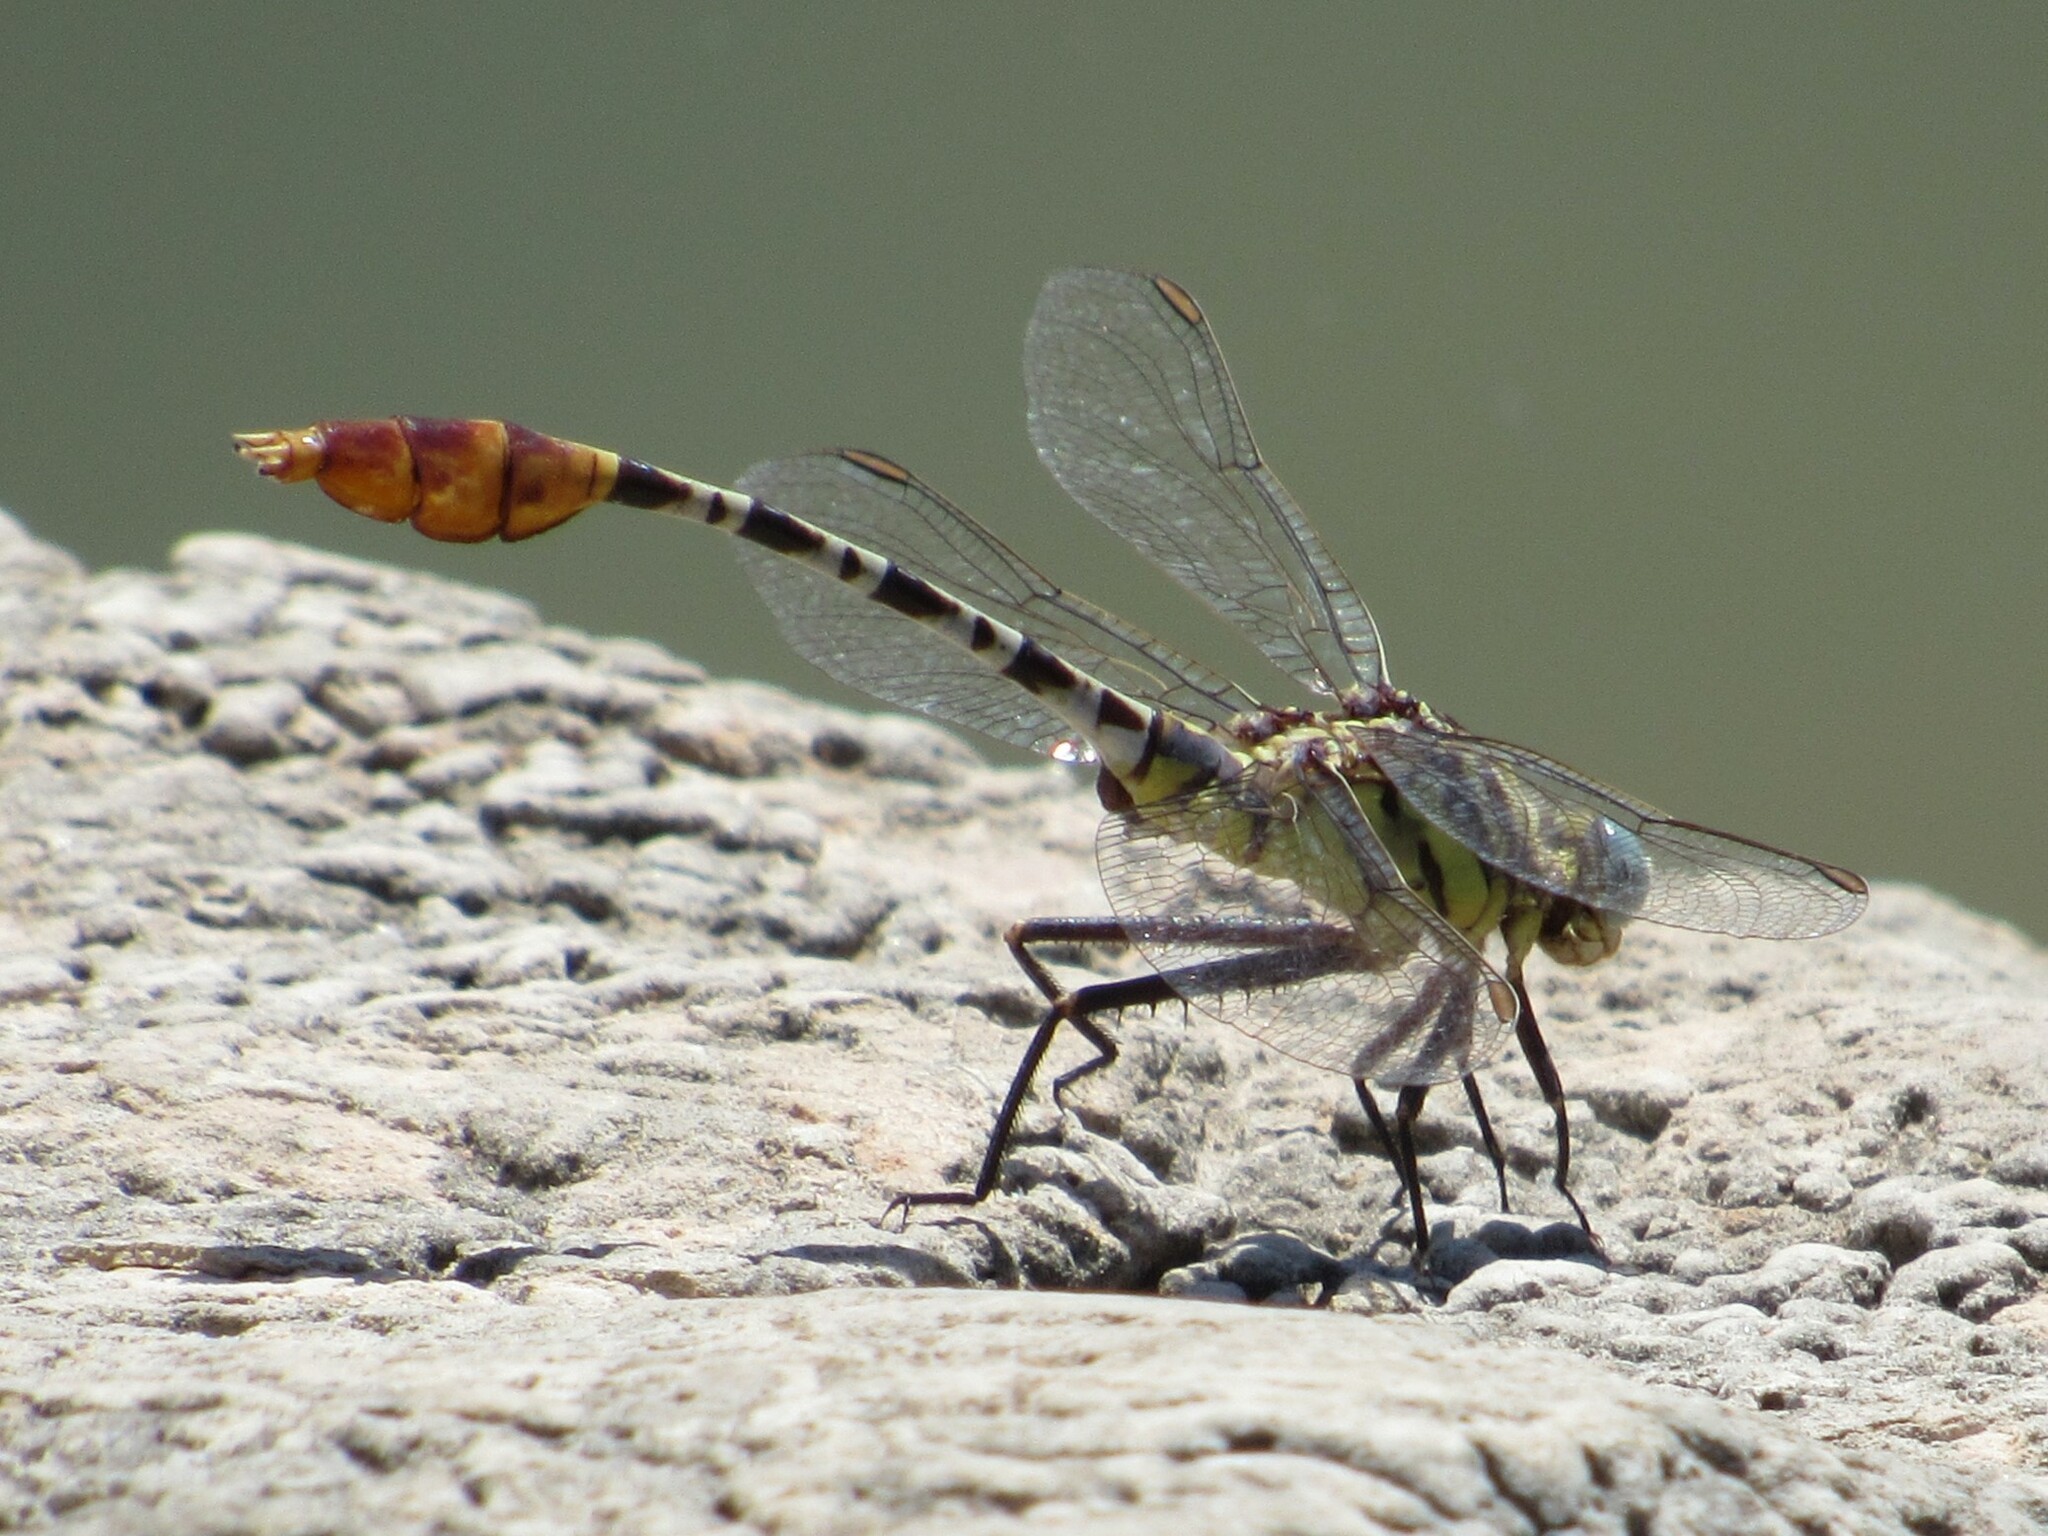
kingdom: Animalia
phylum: Arthropoda
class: Insecta
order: Odonata
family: Gomphidae
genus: Dromogomphus
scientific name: Dromogomphus spoliatus
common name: Flag-tailed spinyleg
